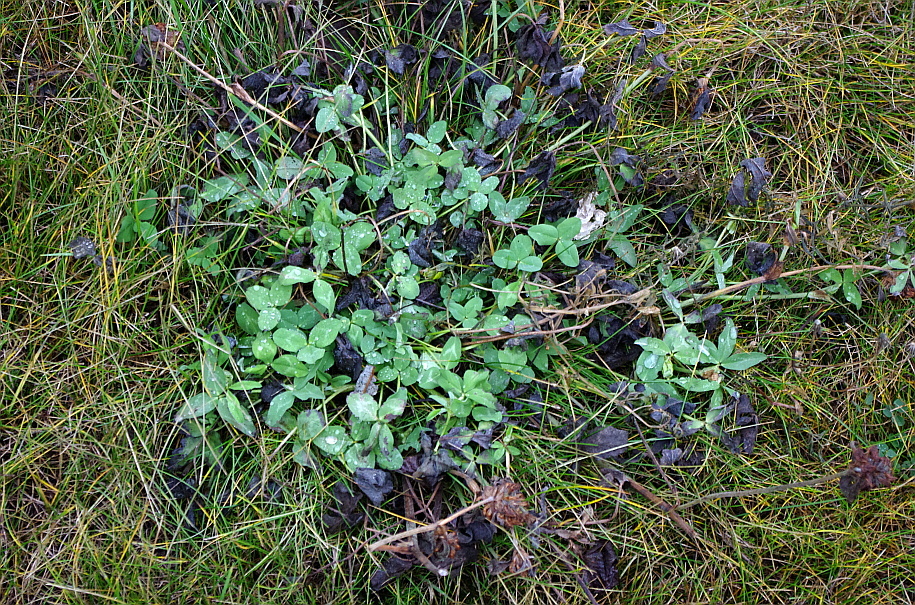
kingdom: Plantae
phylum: Tracheophyta
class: Magnoliopsida
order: Fabales
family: Fabaceae
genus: Trifolium
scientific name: Trifolium pratense
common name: Red clover
